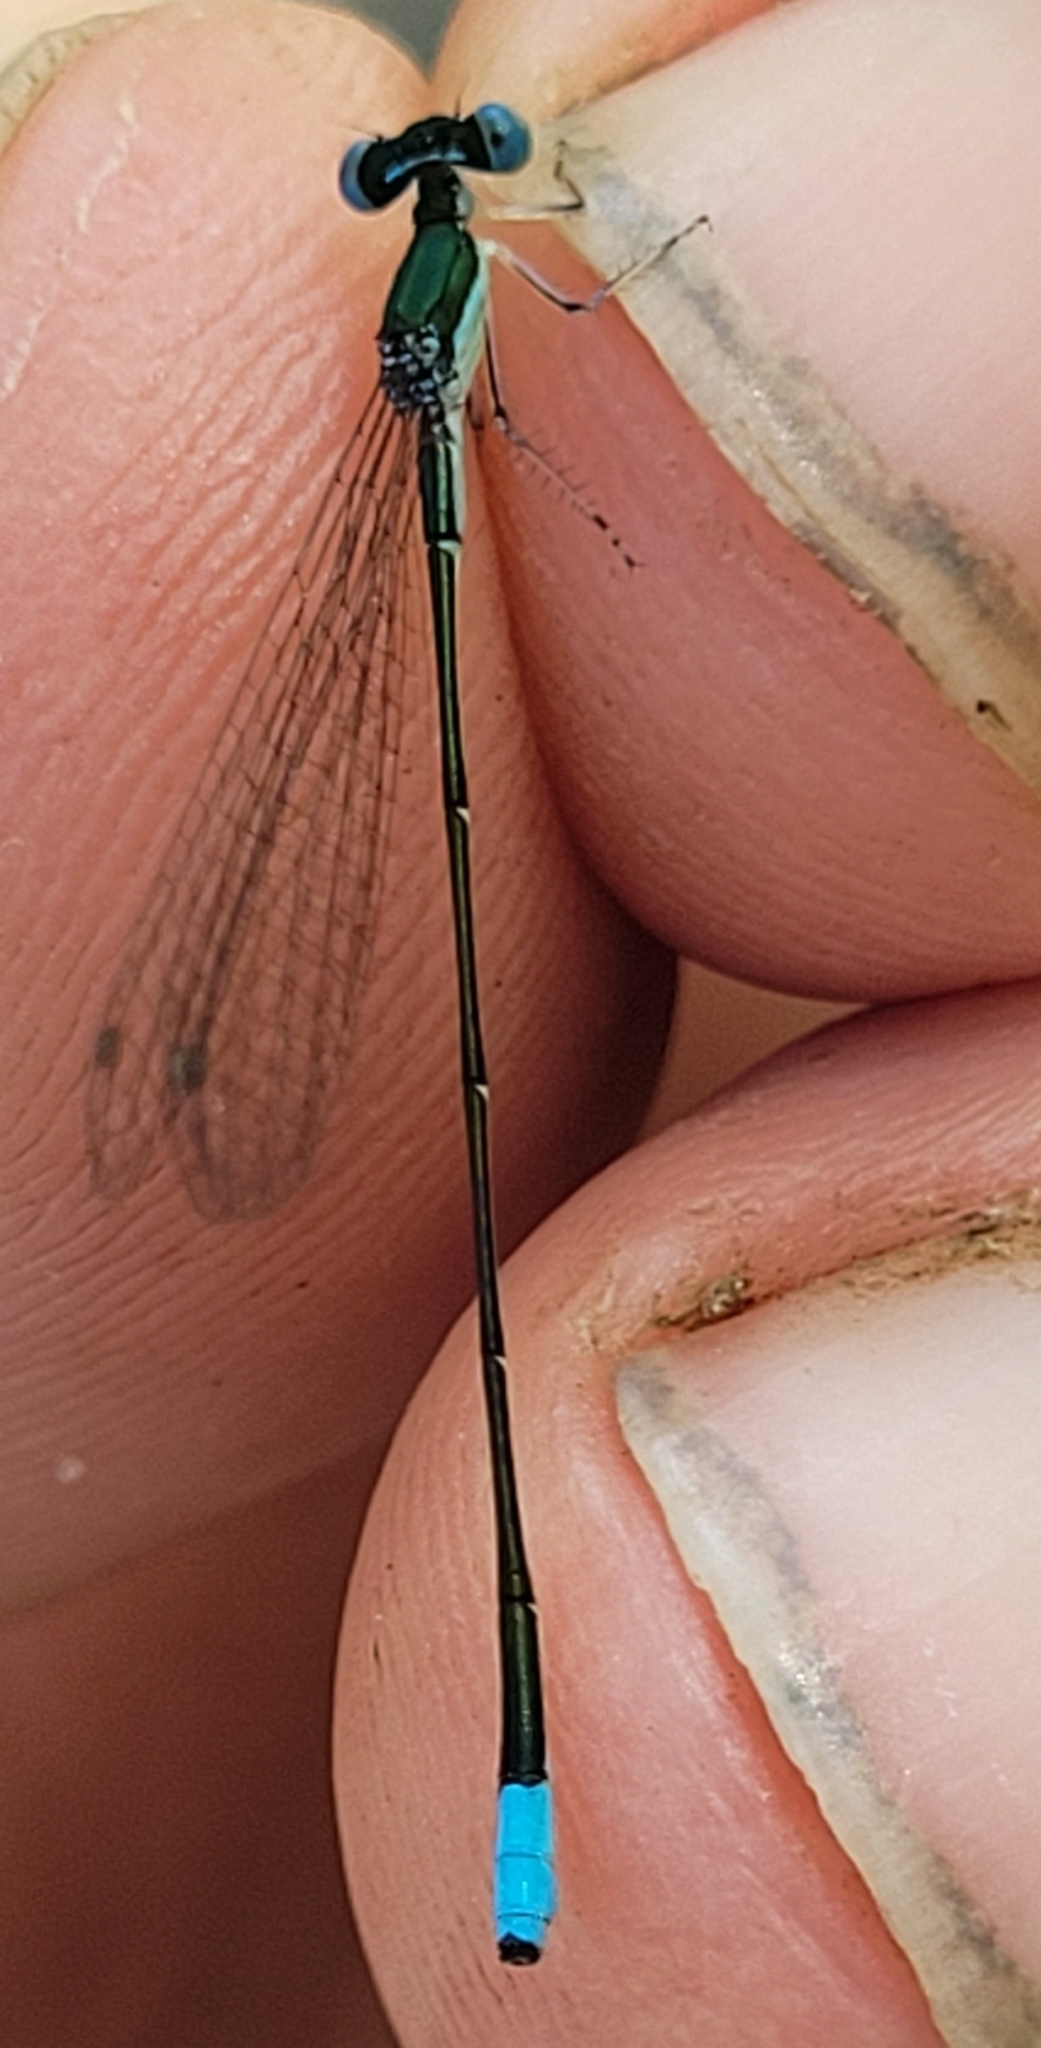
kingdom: Animalia
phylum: Arthropoda
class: Insecta
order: Odonata
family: Coenagrionidae
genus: Nehalennia
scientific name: Nehalennia gracilis
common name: Sphagnum sprite
